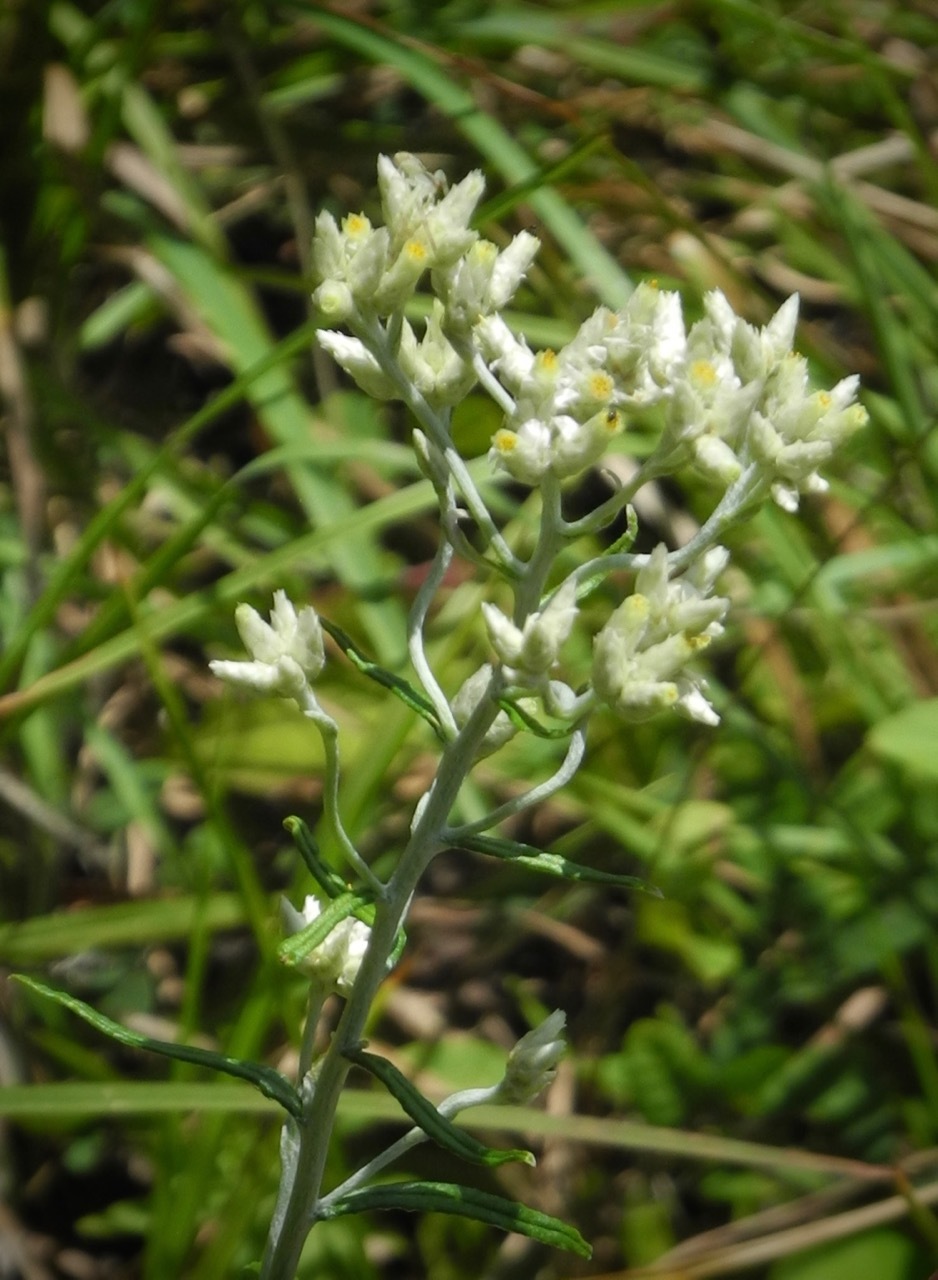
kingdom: Plantae
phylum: Tracheophyta
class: Magnoliopsida
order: Asterales
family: Asteraceae
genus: Pseudognaphalium
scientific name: Pseudognaphalium obtusifolium
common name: Eastern rabbit-tobacco
